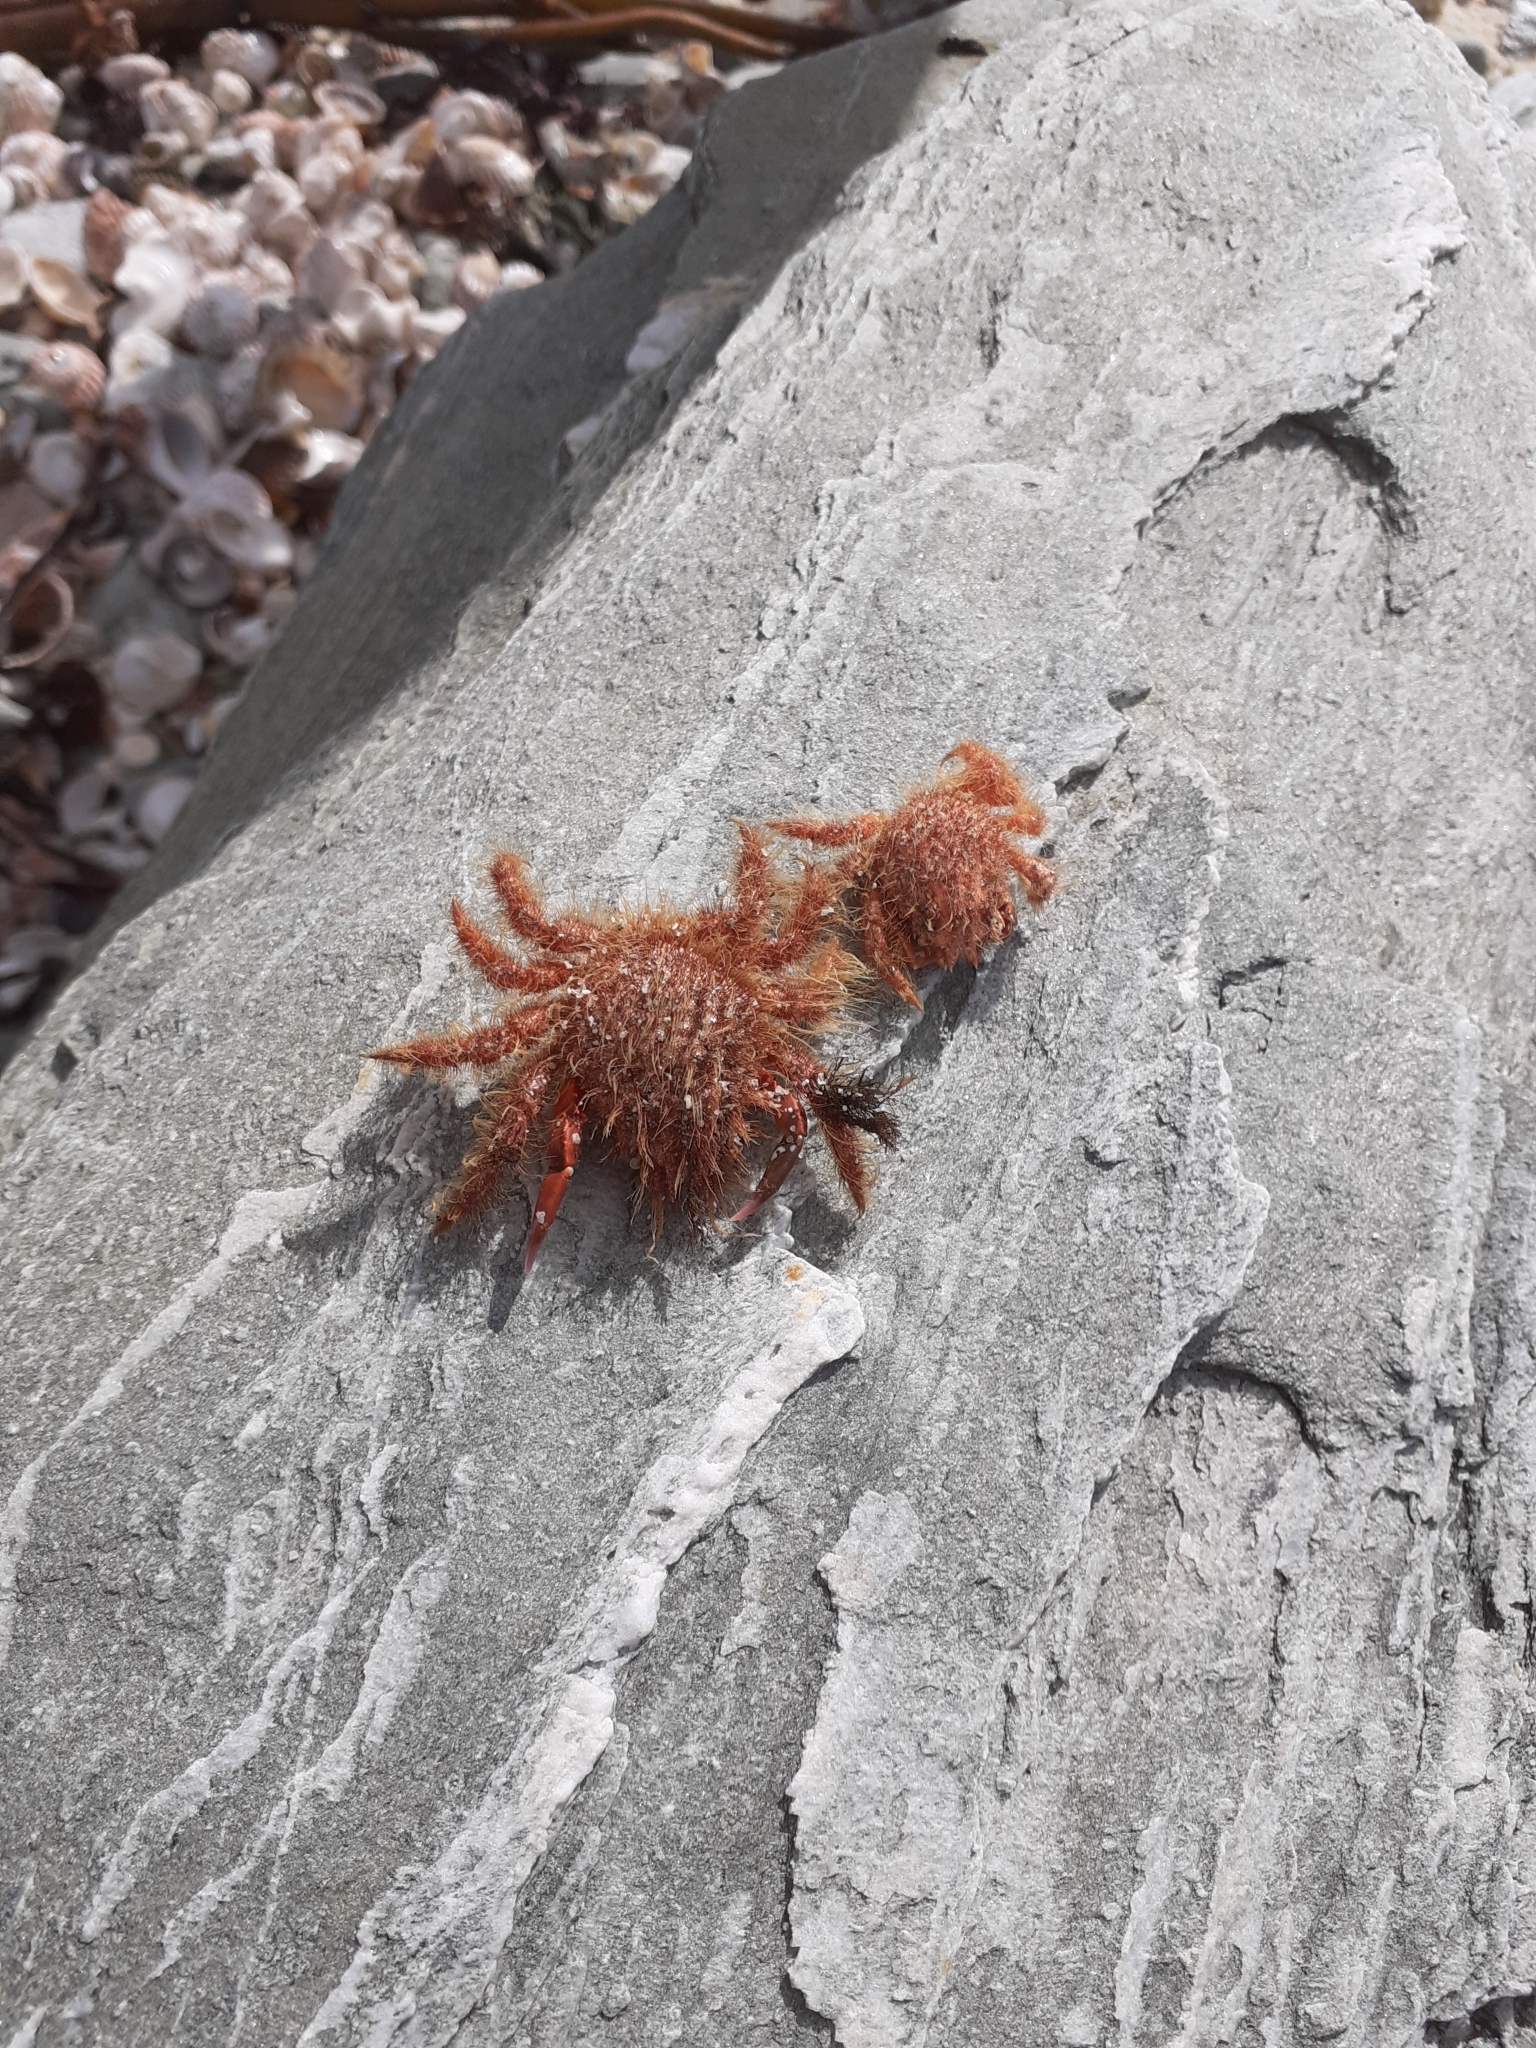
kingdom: Animalia
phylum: Arthropoda
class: Malacostraca
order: Decapoda
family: Majidae
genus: Notomithrax
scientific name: Notomithrax ursus
